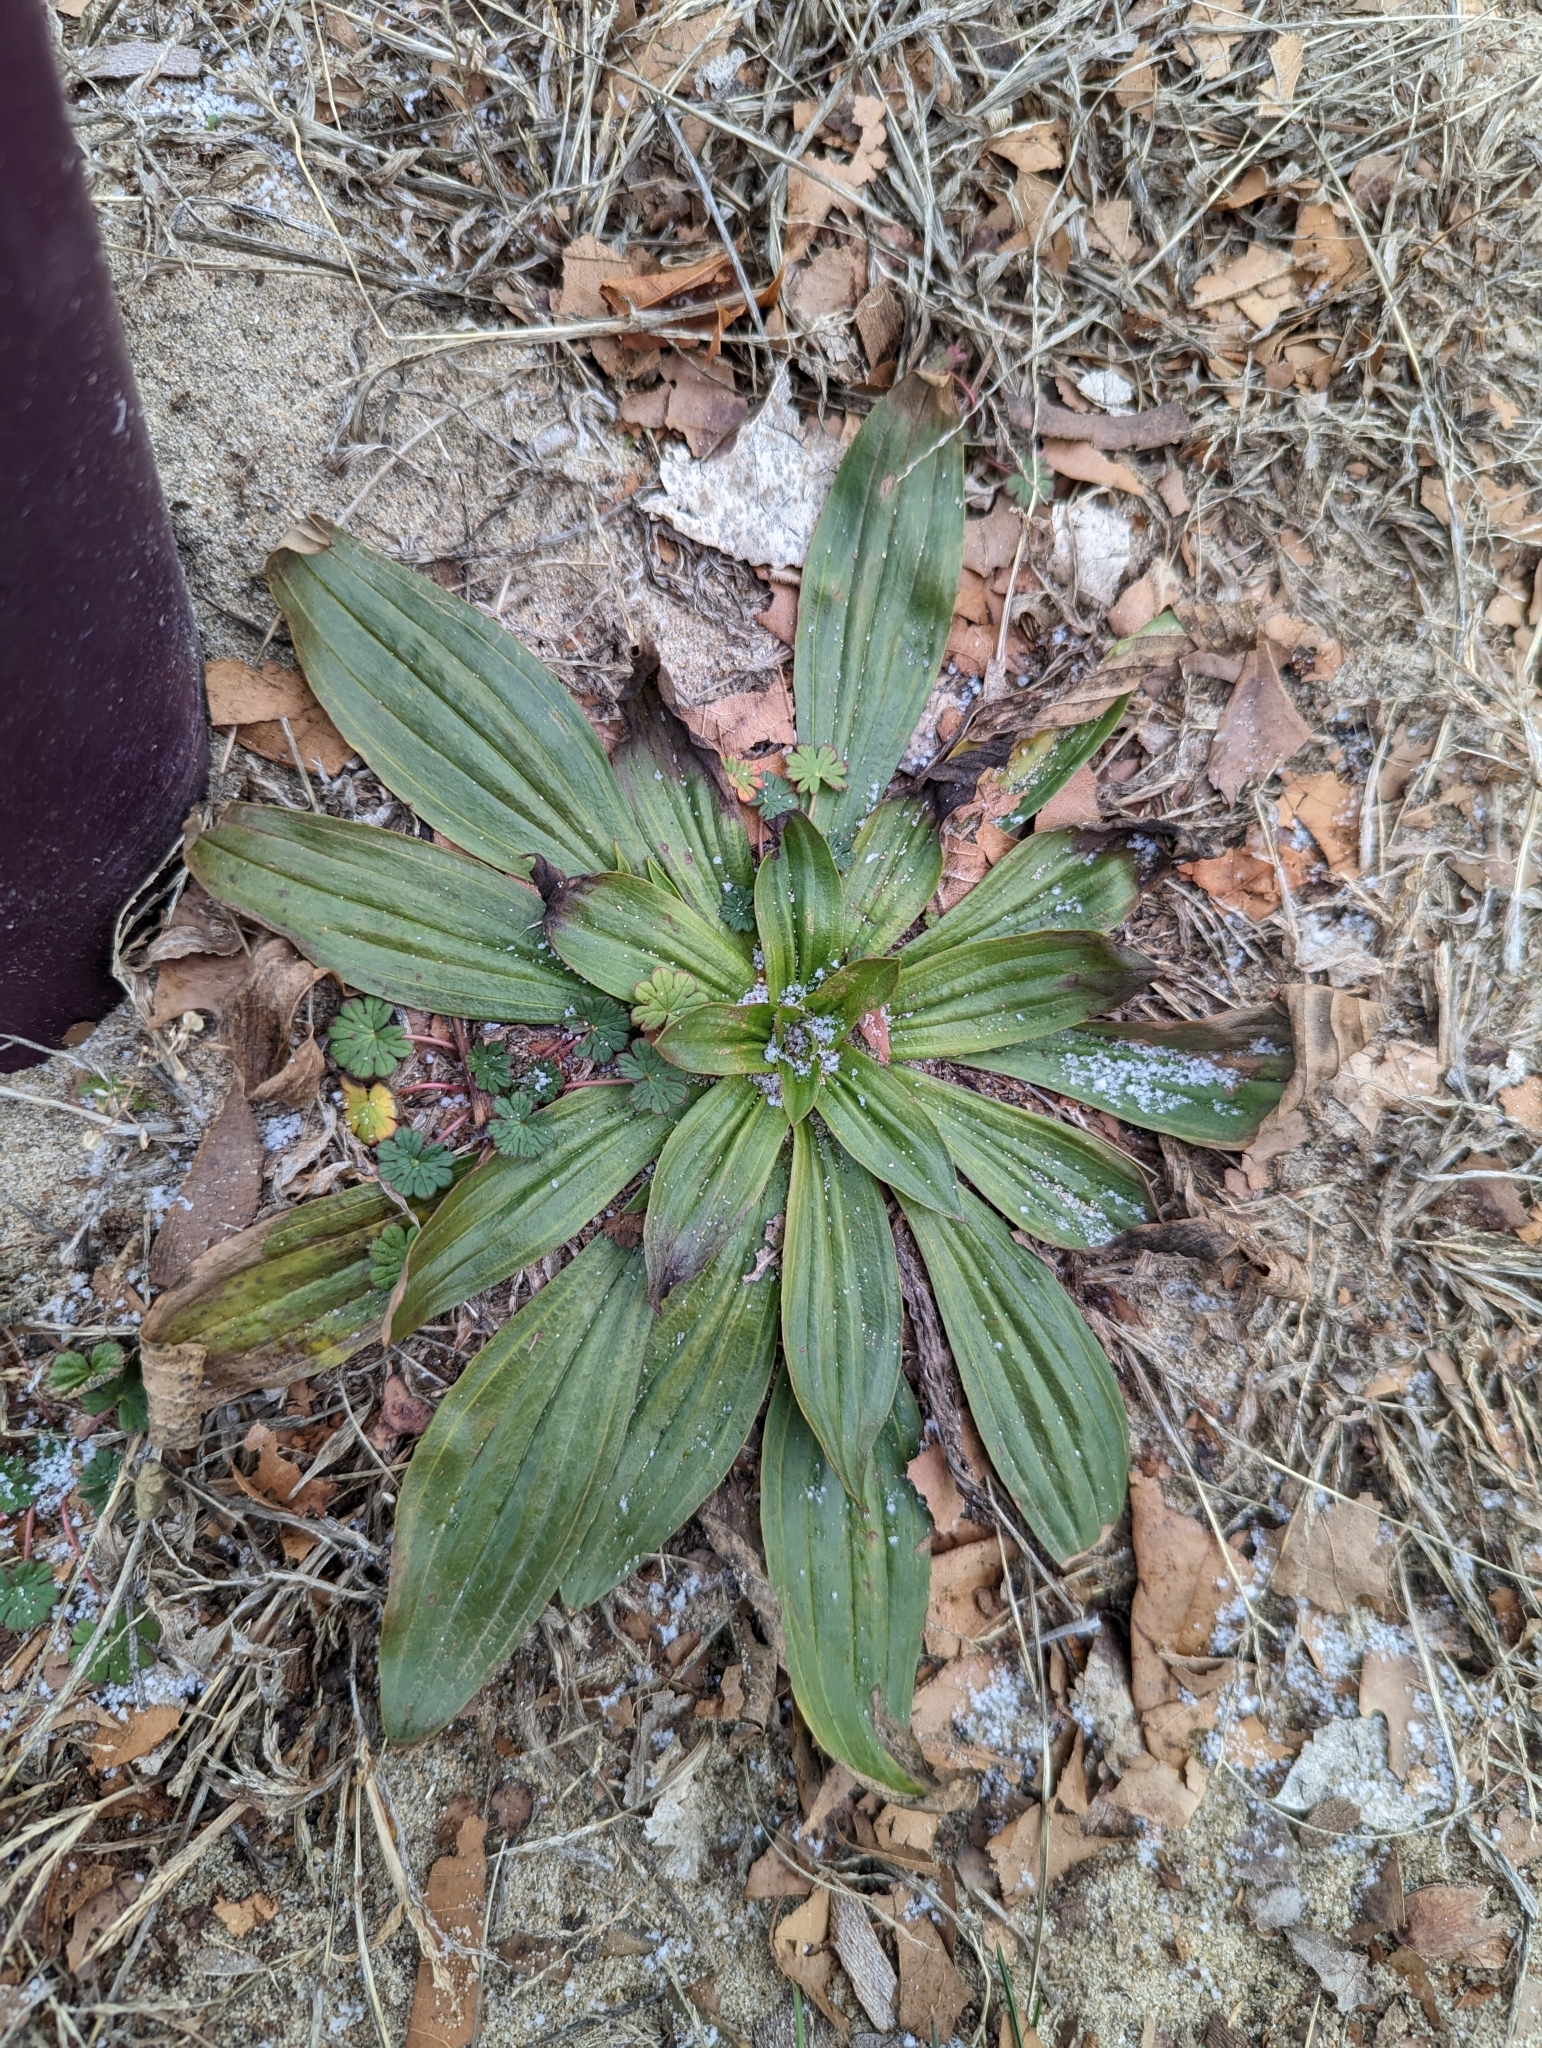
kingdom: Plantae
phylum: Tracheophyta
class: Magnoliopsida
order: Lamiales
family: Plantaginaceae
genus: Plantago
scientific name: Plantago lanceolata
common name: Ribwort plantain
